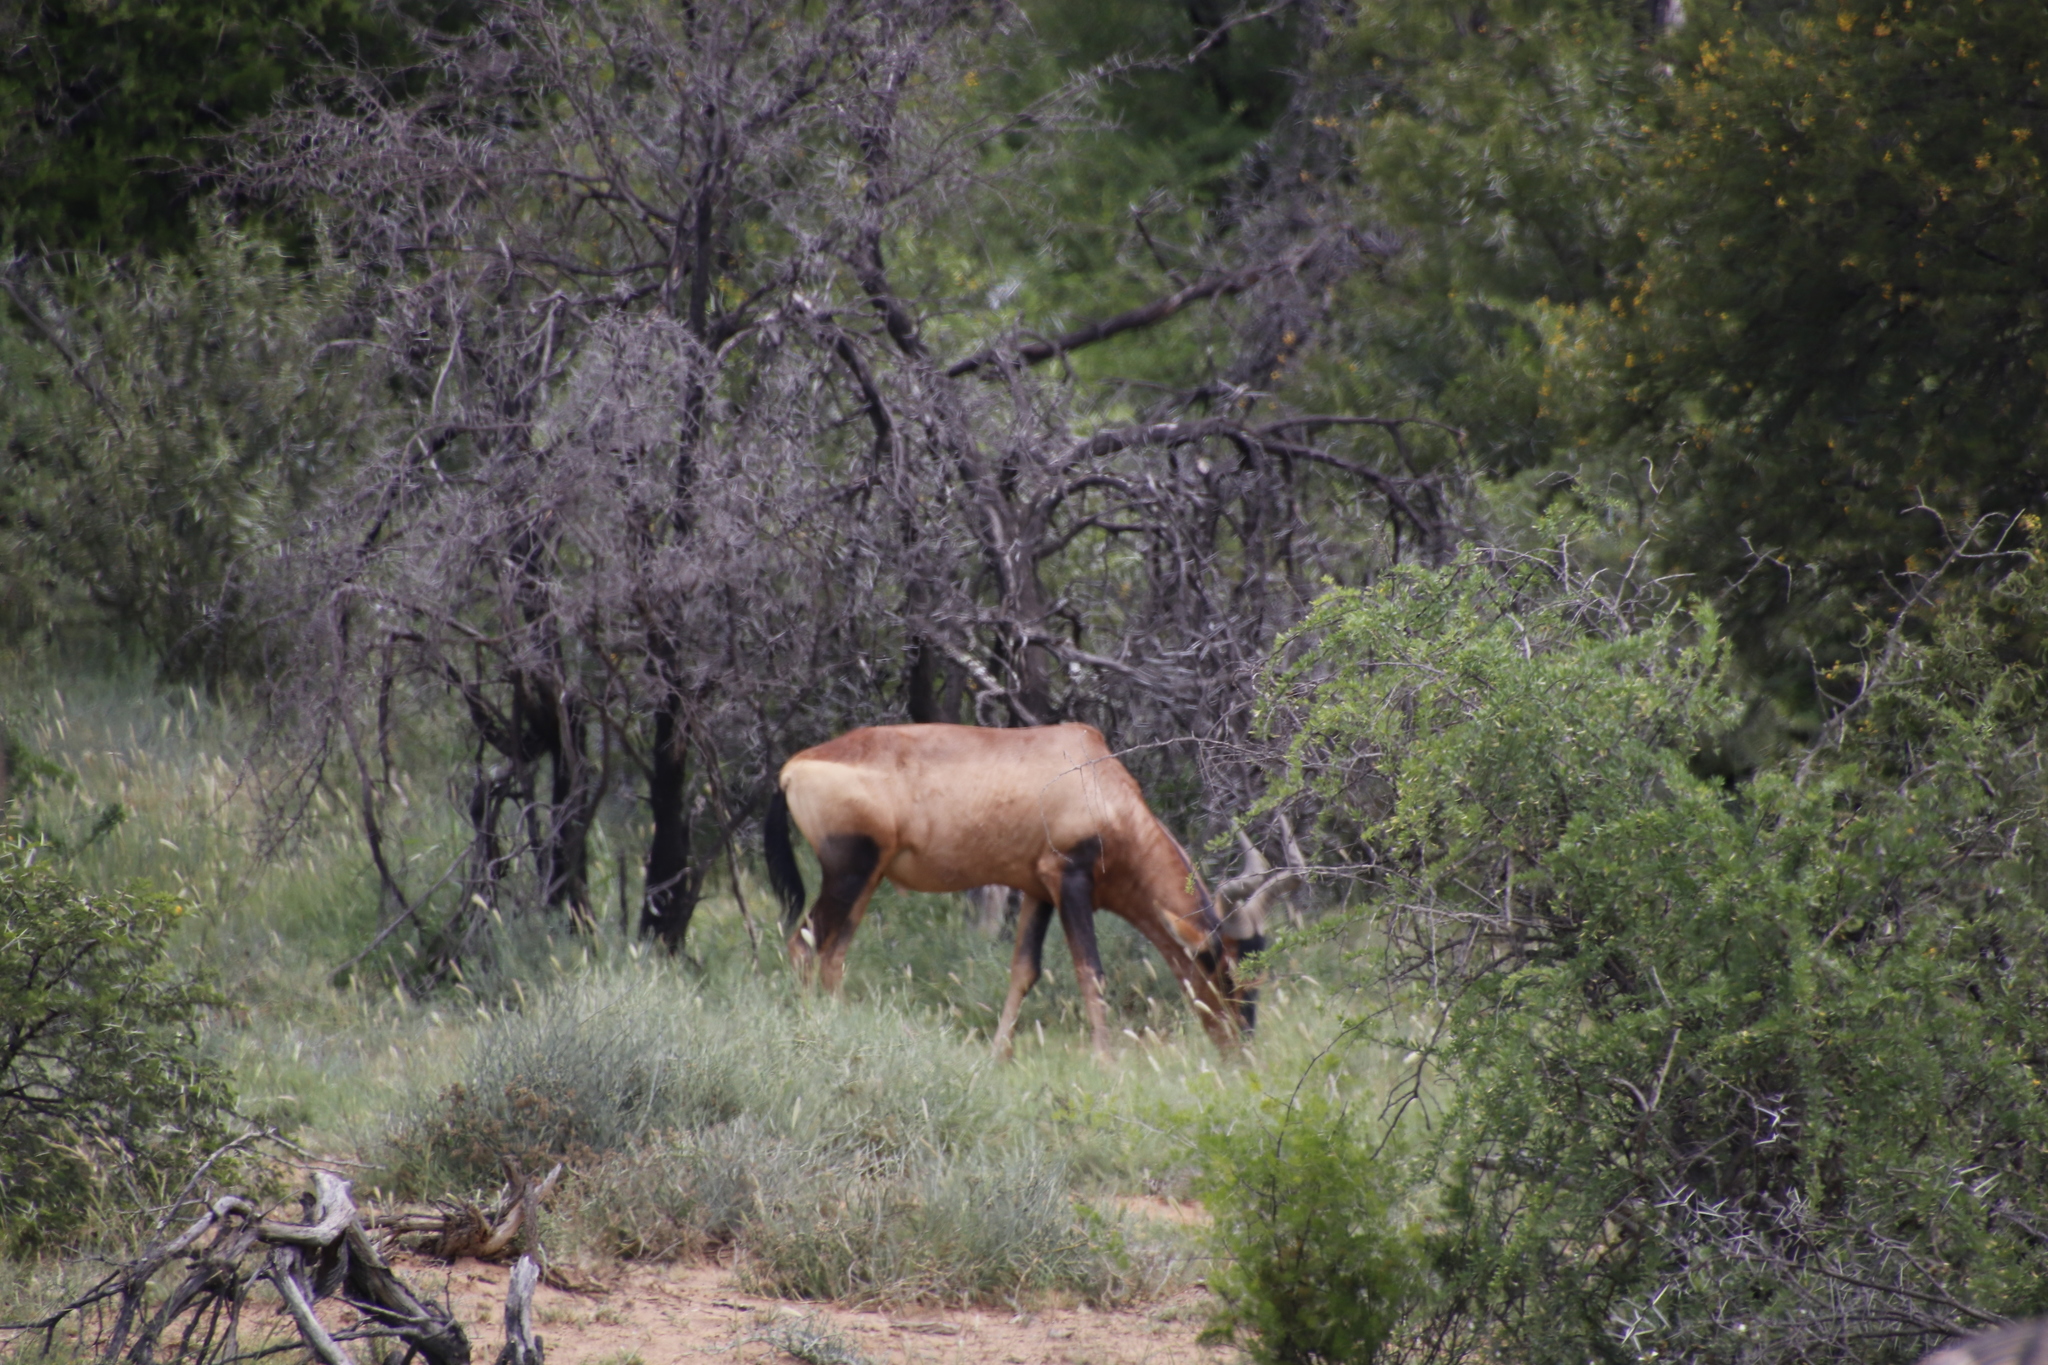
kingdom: Animalia
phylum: Chordata
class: Mammalia
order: Artiodactyla
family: Bovidae
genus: Alcelaphus
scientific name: Alcelaphus caama
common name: Red hartebeest
